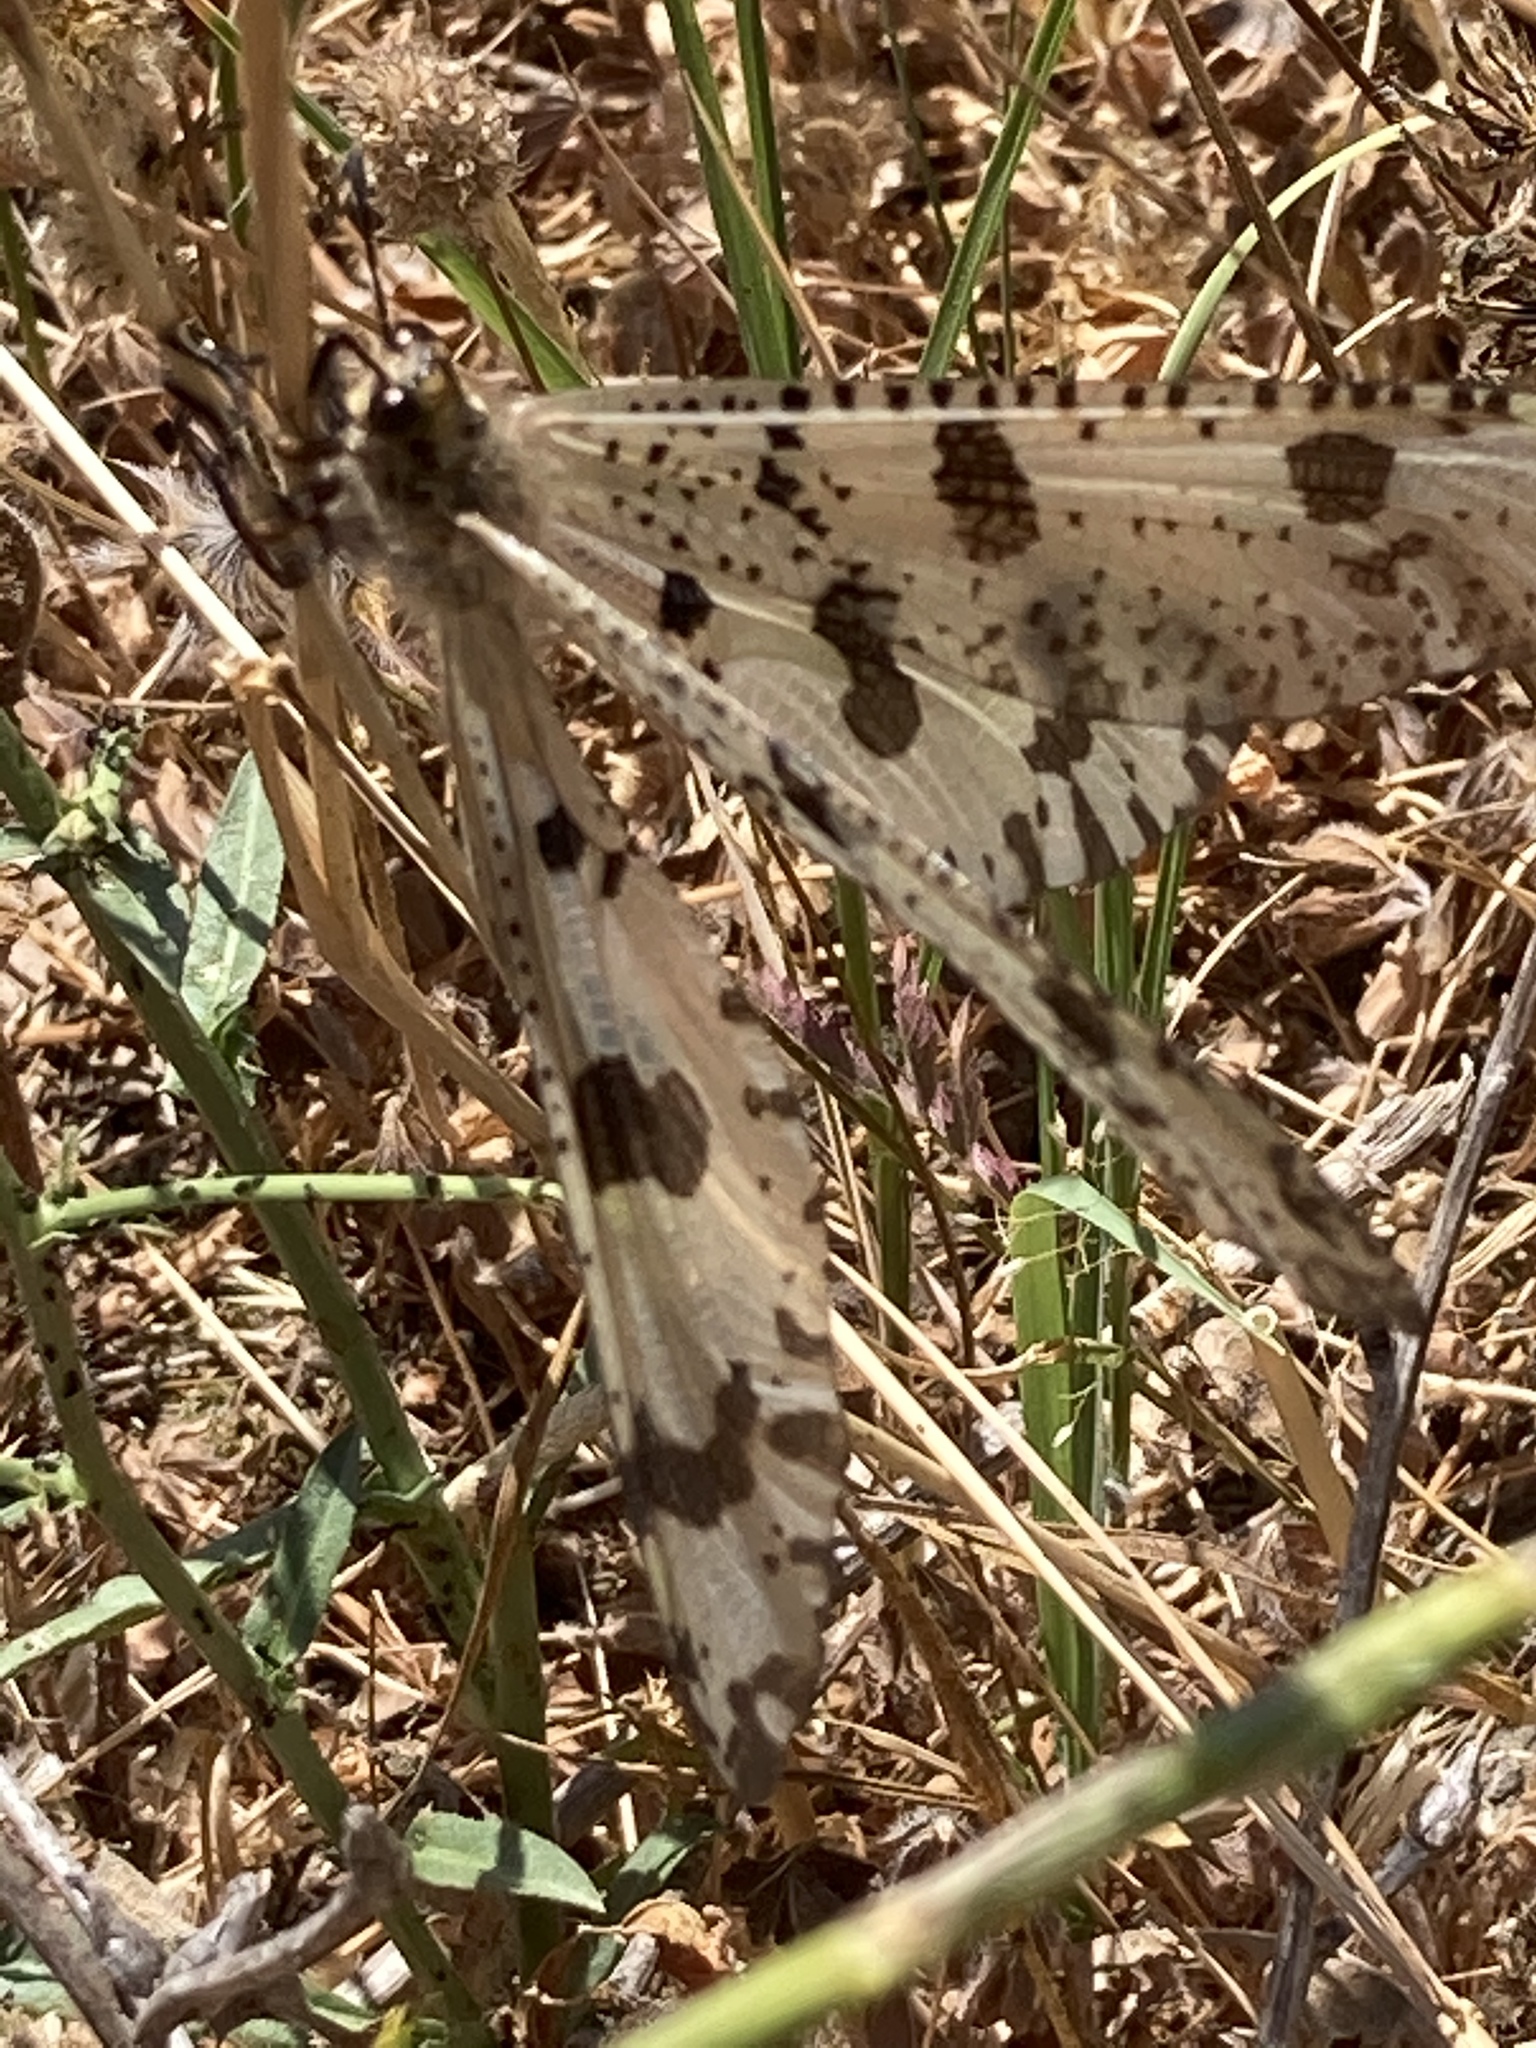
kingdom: Animalia
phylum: Arthropoda
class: Insecta
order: Neuroptera
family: Myrmeleontidae
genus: Palpares
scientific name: Palpares libelluloides
